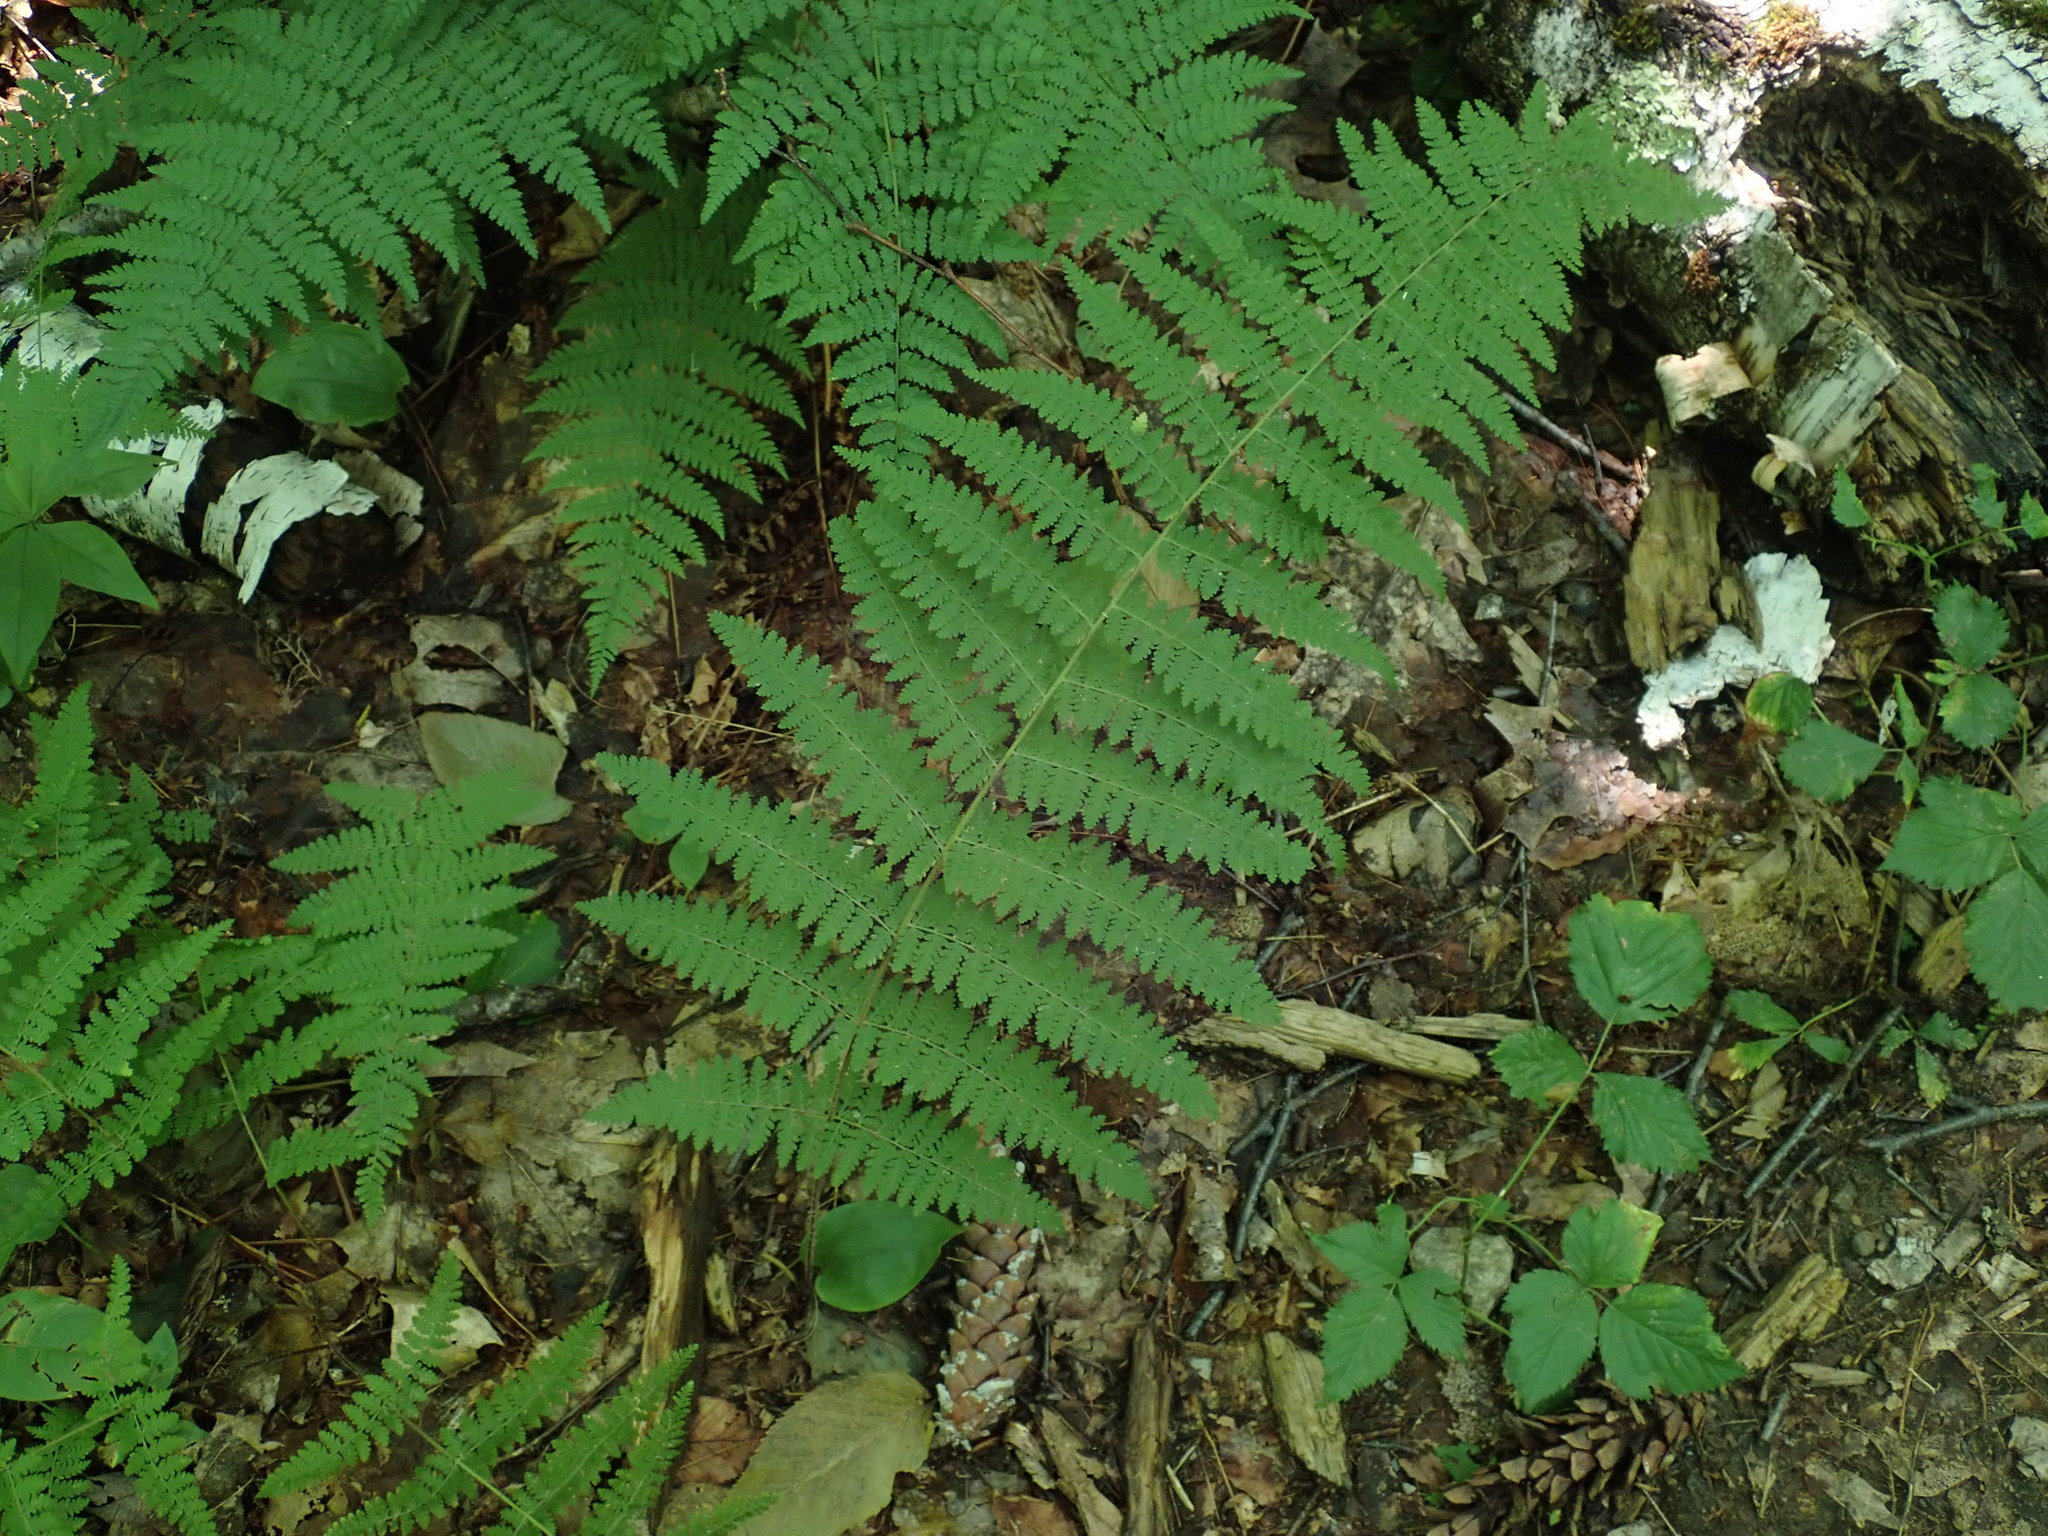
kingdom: Plantae
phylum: Tracheophyta
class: Polypodiopsida
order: Polypodiales
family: Dennstaedtiaceae
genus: Sitobolium
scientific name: Sitobolium punctilobum
